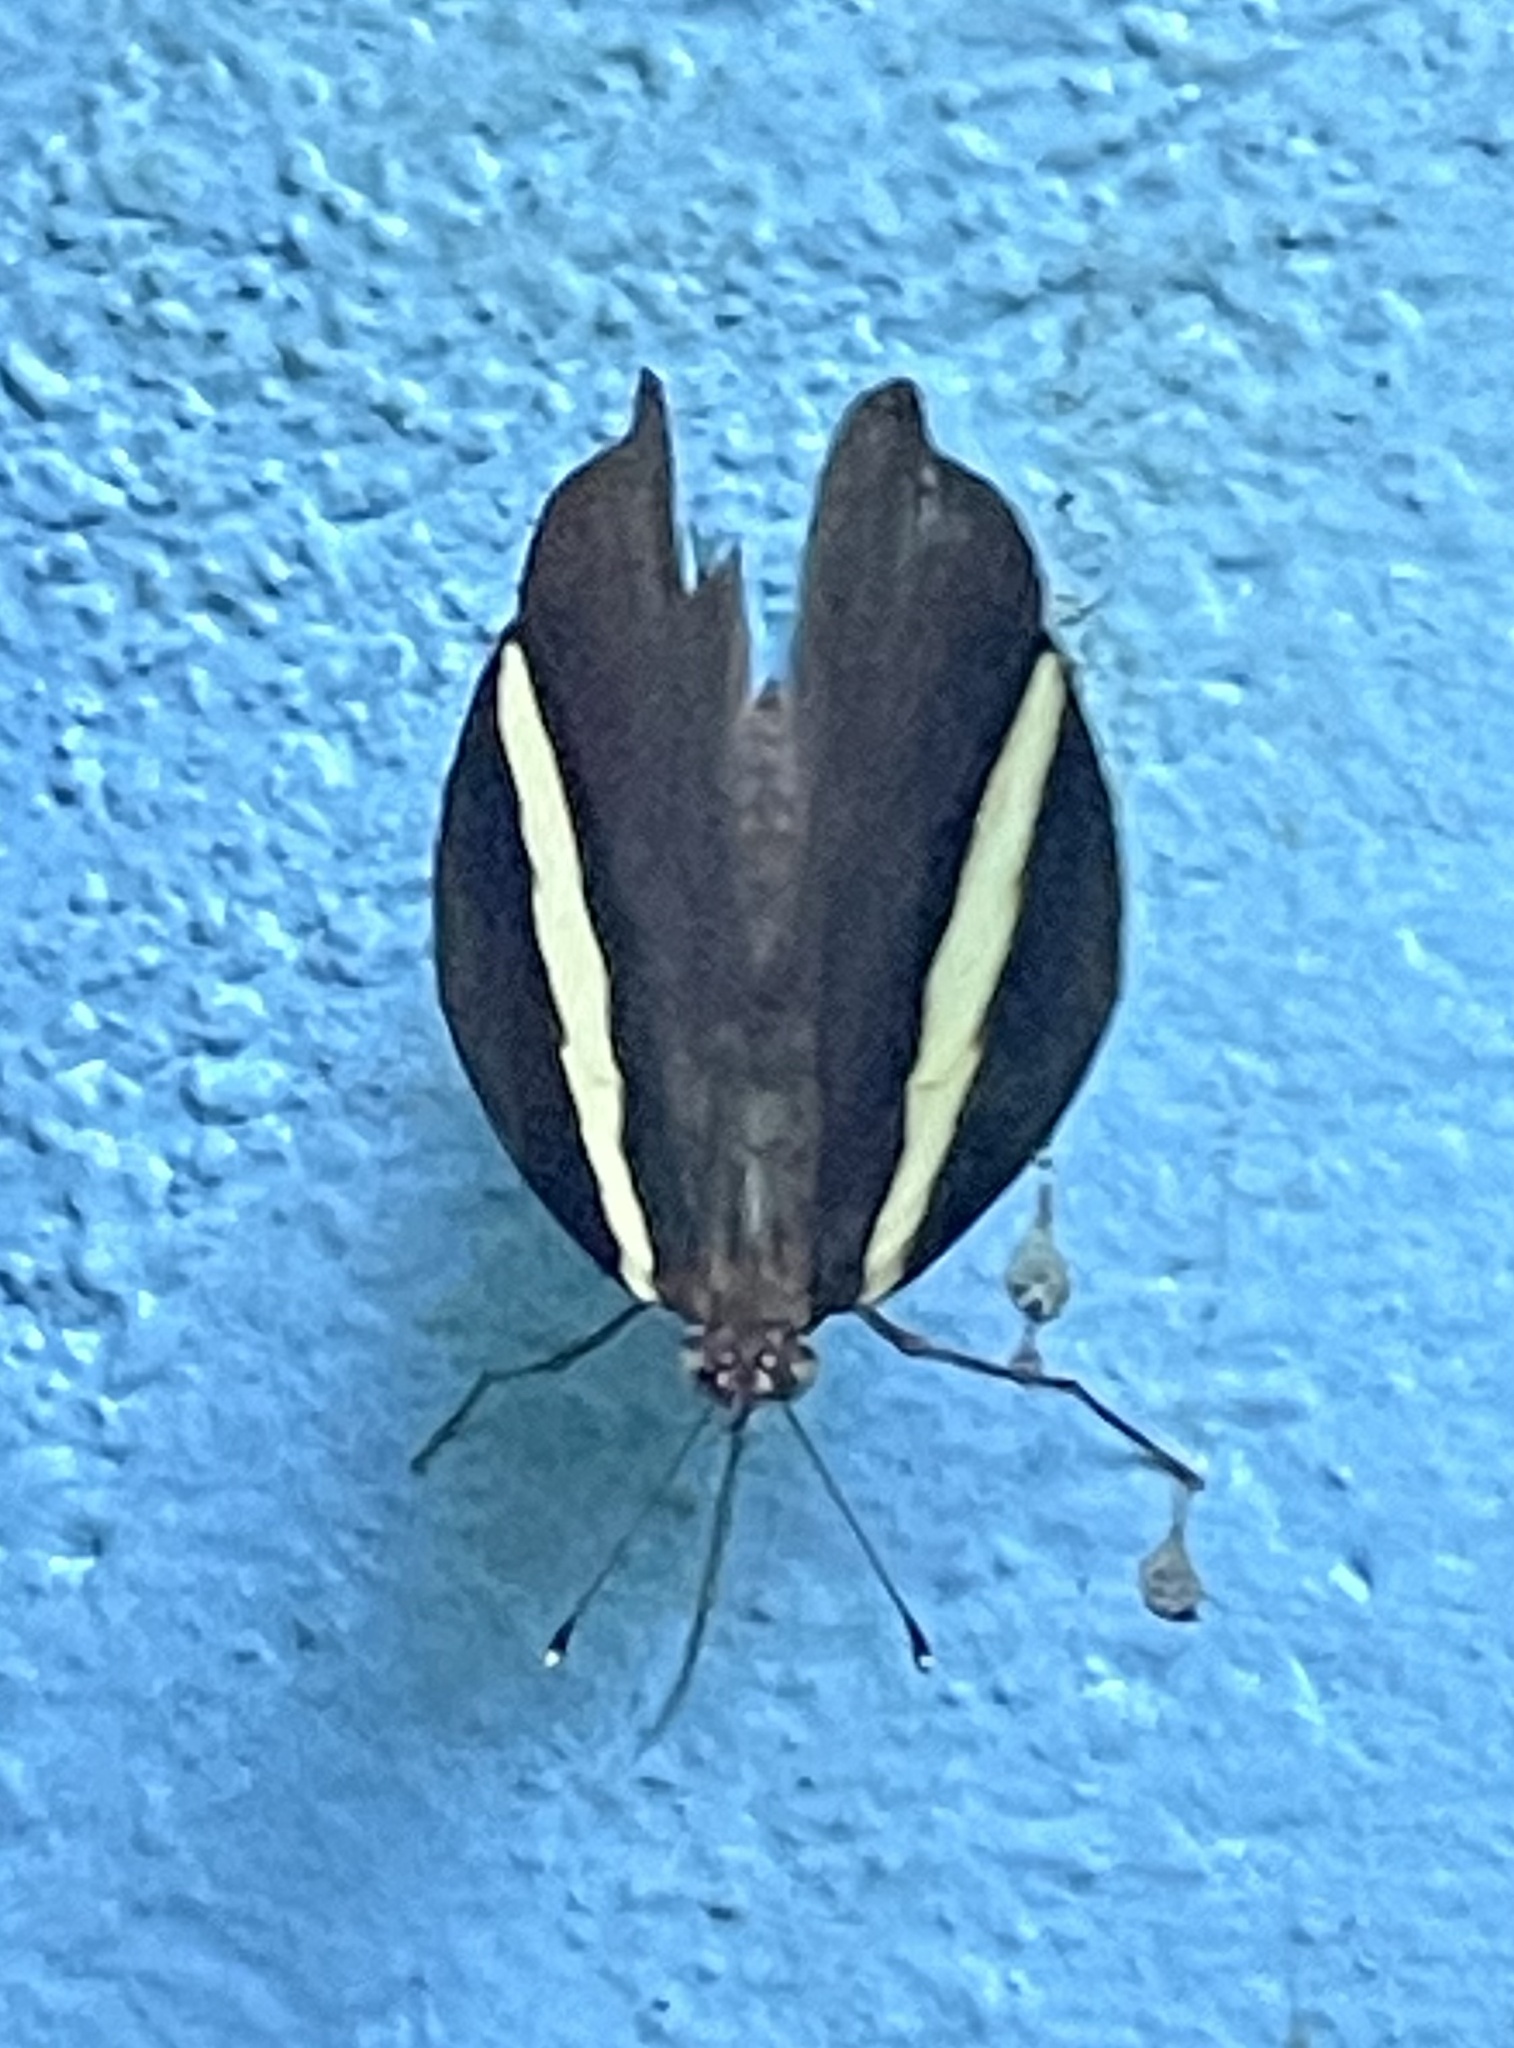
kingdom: Animalia
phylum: Arthropoda
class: Insecta
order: Lepidoptera
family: Nymphalidae
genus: Colobura
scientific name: Colobura dirce
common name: Dirce beauty
